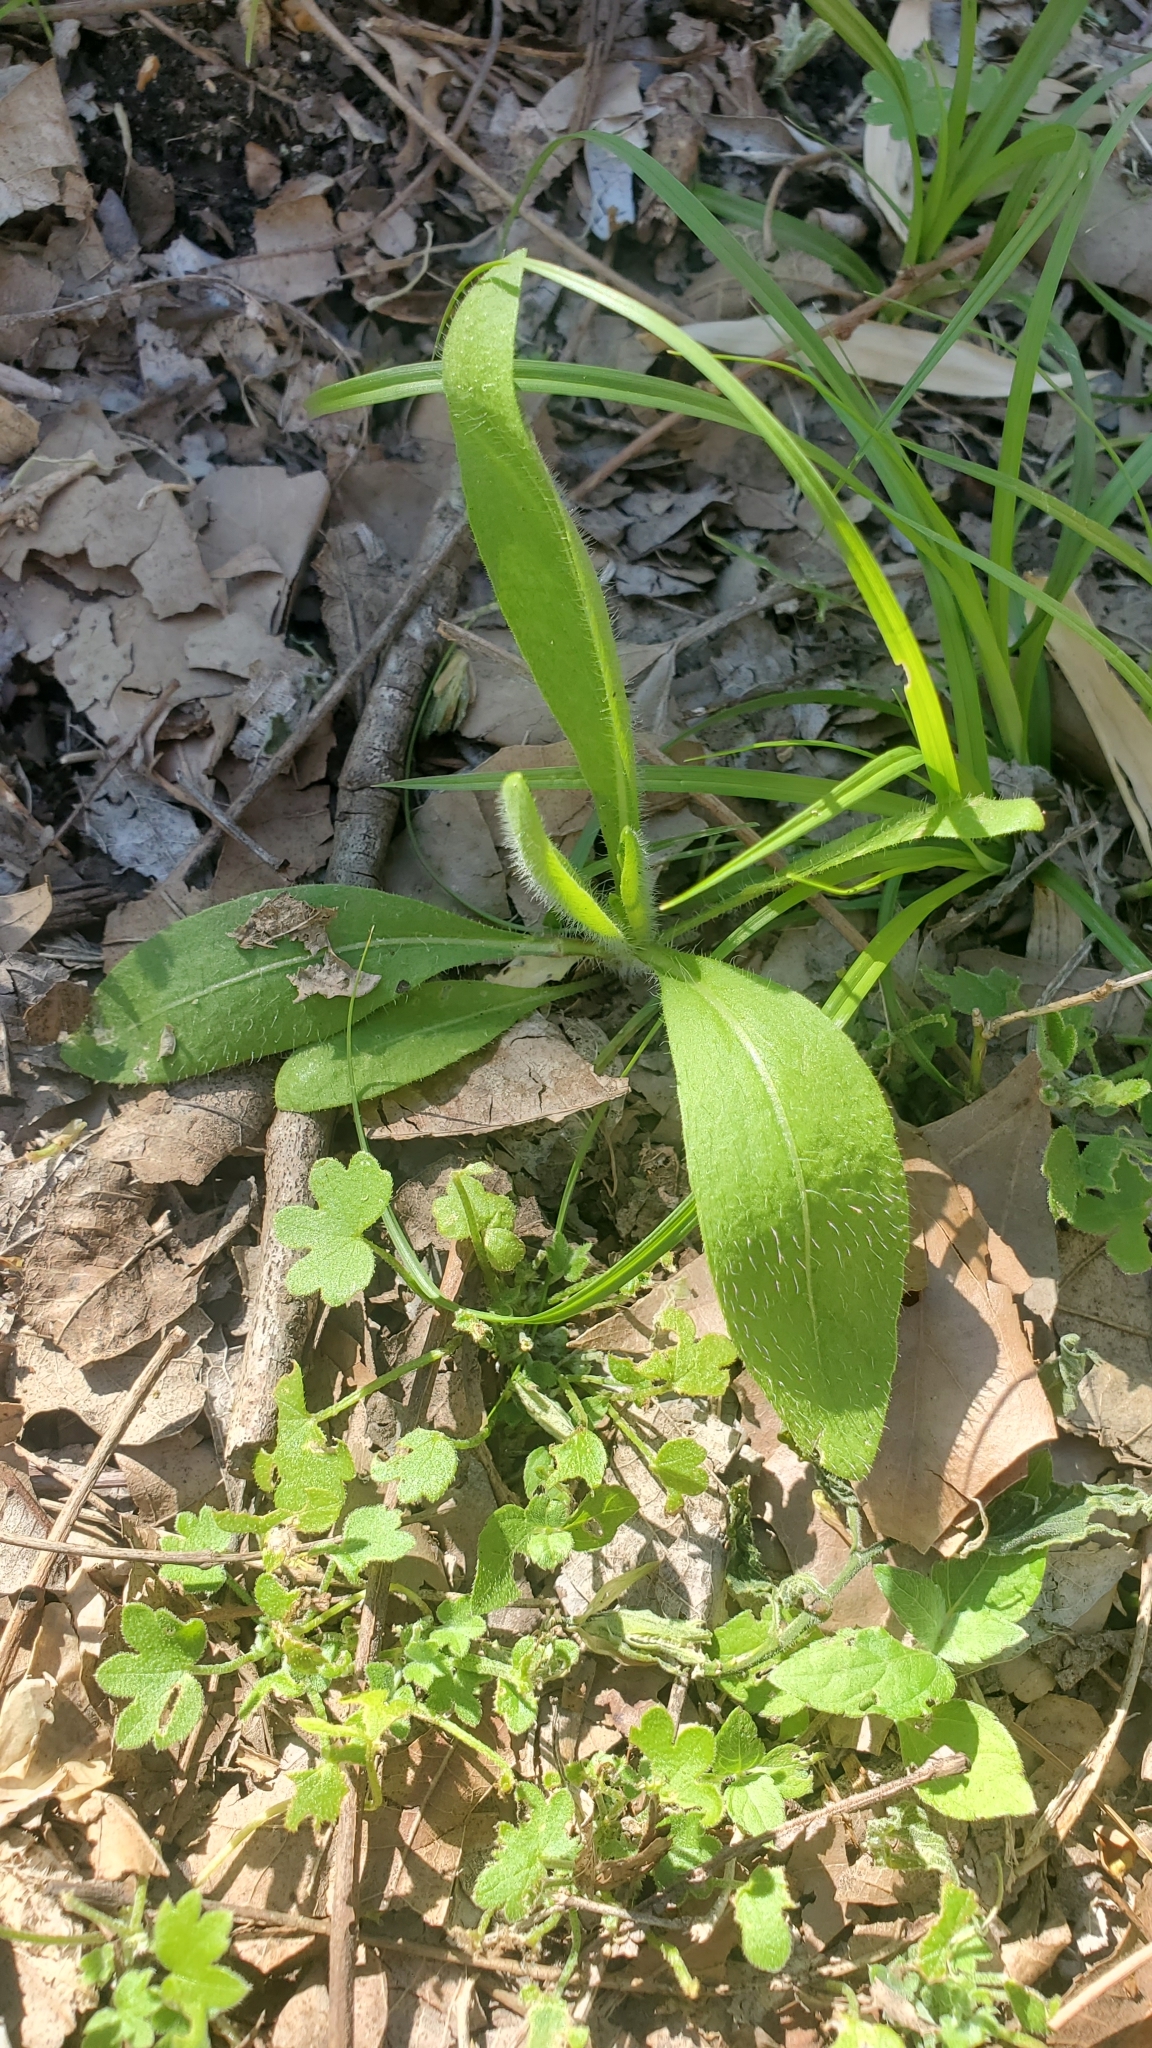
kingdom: Plantae
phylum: Tracheophyta
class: Magnoliopsida
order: Apiales
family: Apiaceae
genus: Bowlesia
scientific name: Bowlesia incana
